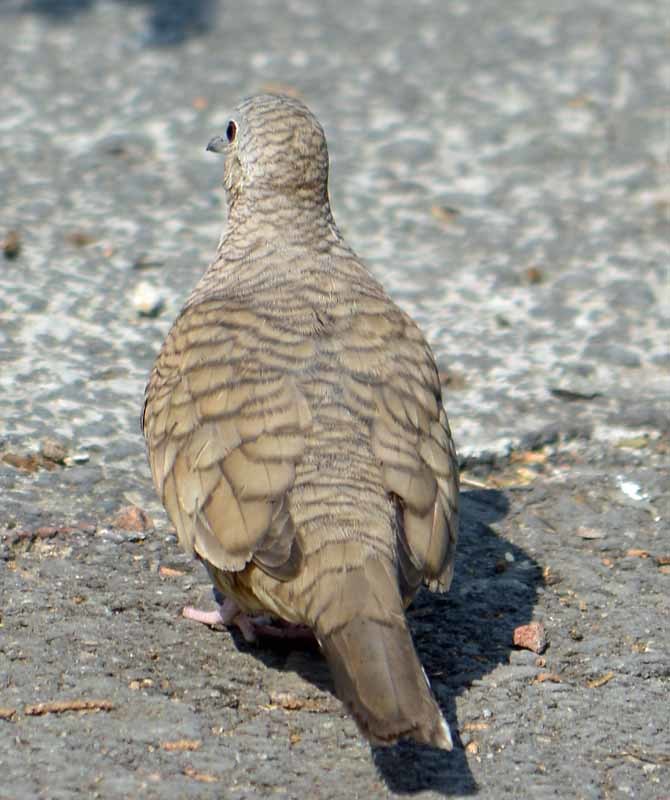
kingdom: Animalia
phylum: Chordata
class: Aves
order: Columbiformes
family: Columbidae
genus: Columbina
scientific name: Columbina inca
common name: Inca dove
